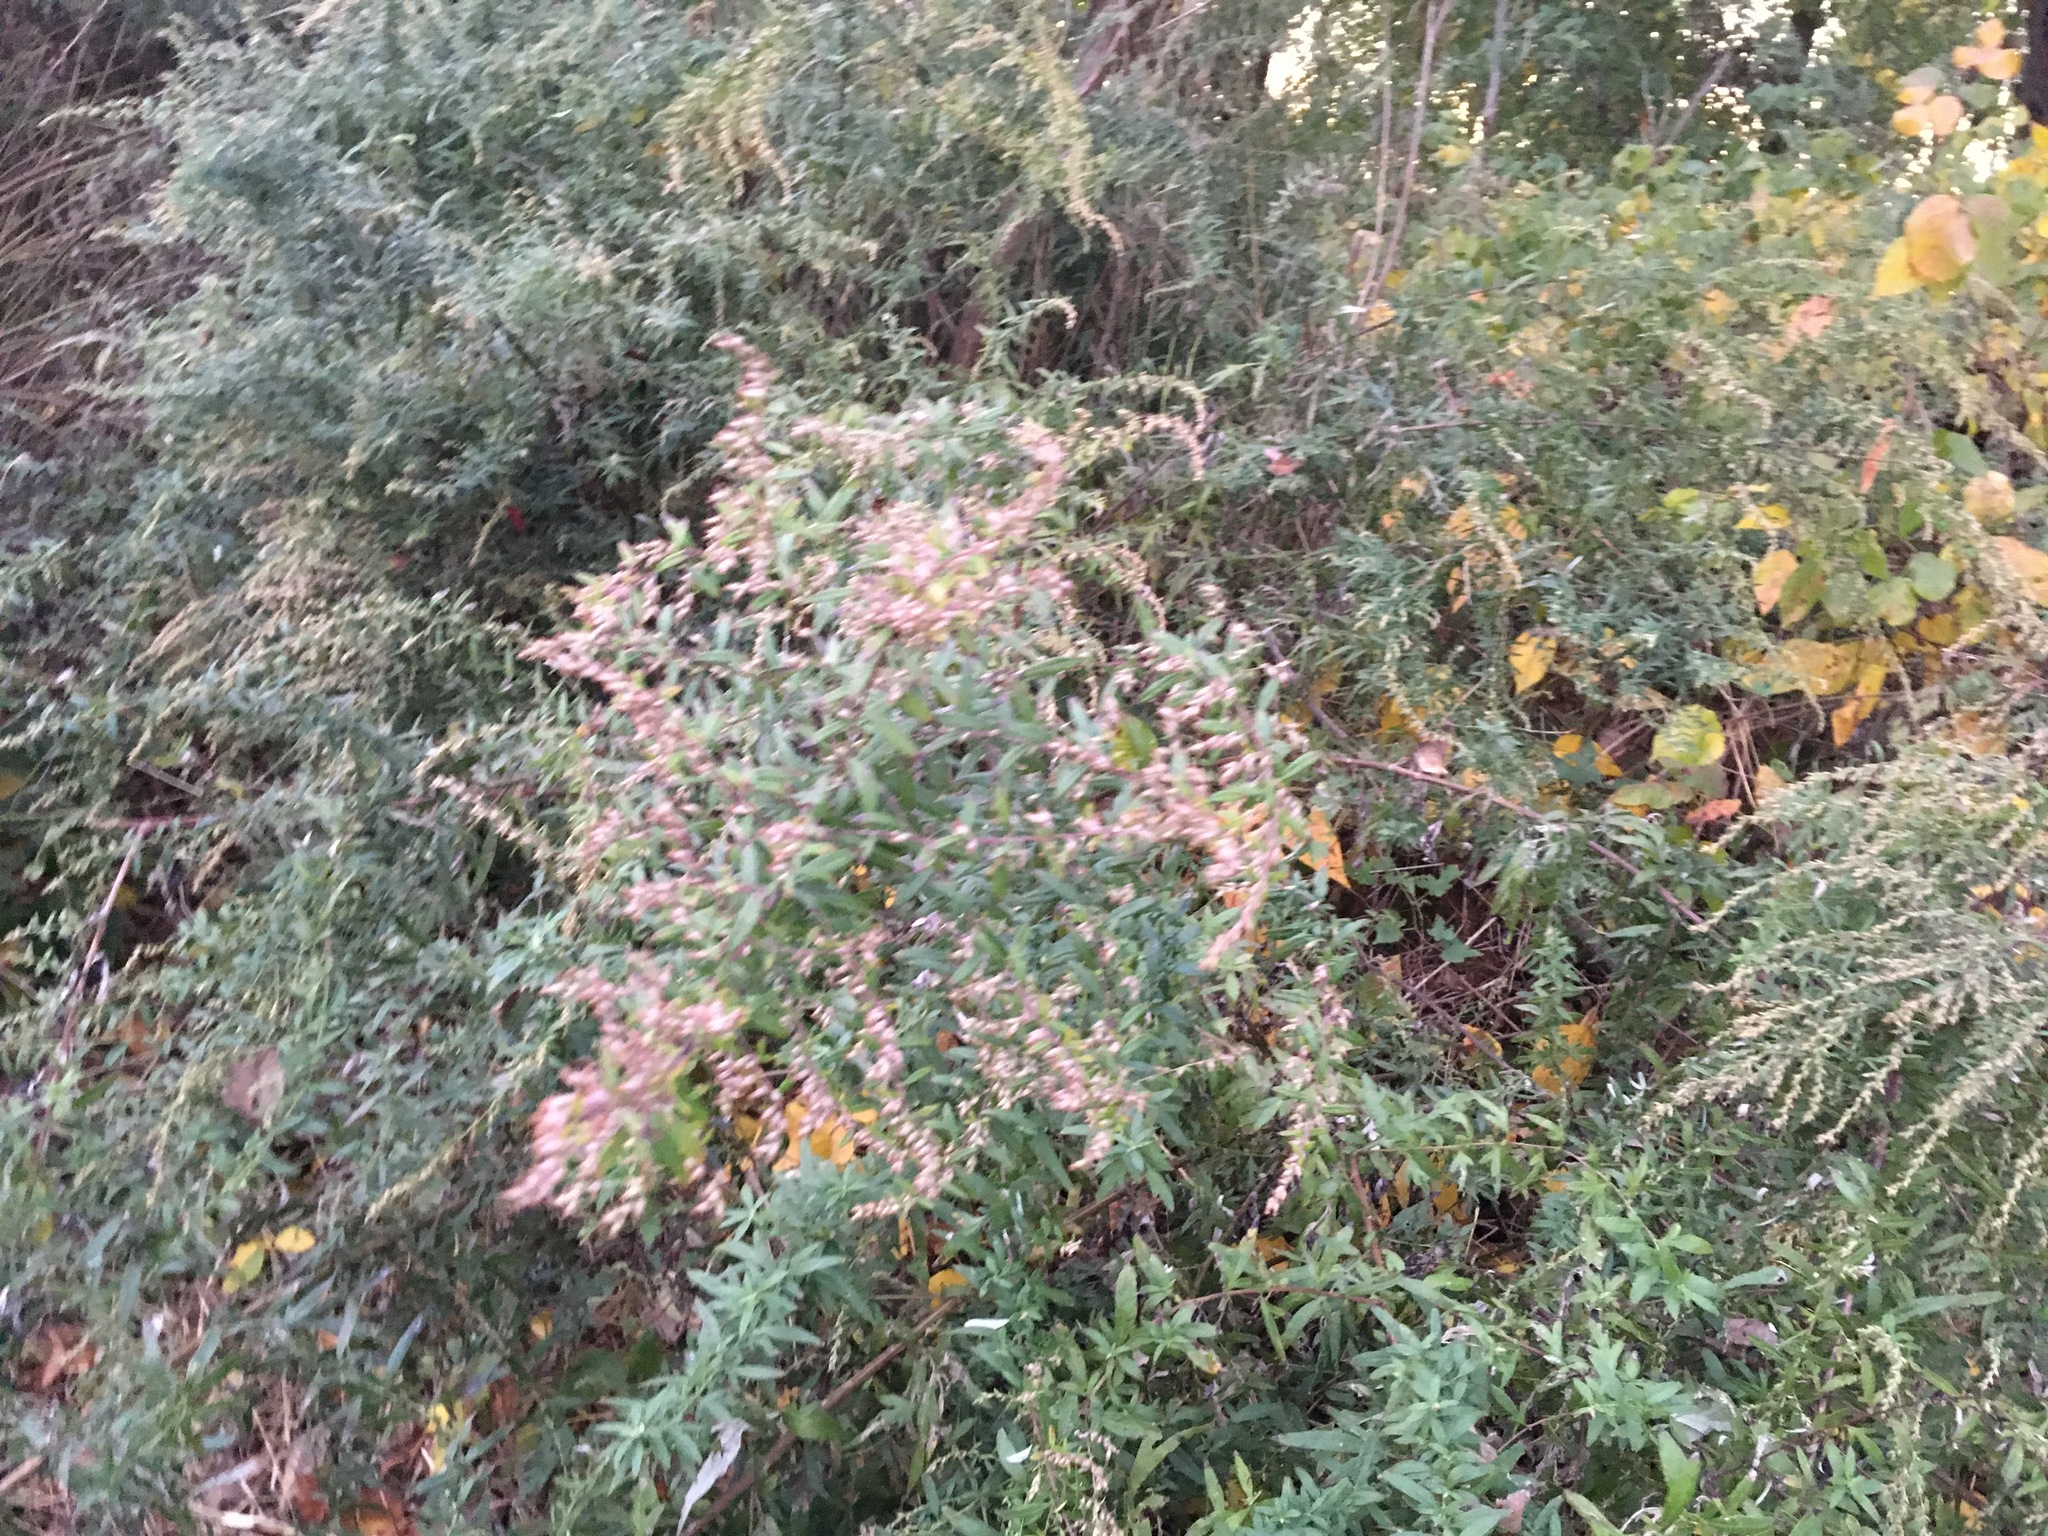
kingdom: Plantae
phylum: Tracheophyta
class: Magnoliopsida
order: Asterales
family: Asteraceae
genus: Artemisia
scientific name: Artemisia vulgaris
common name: Mugwort
